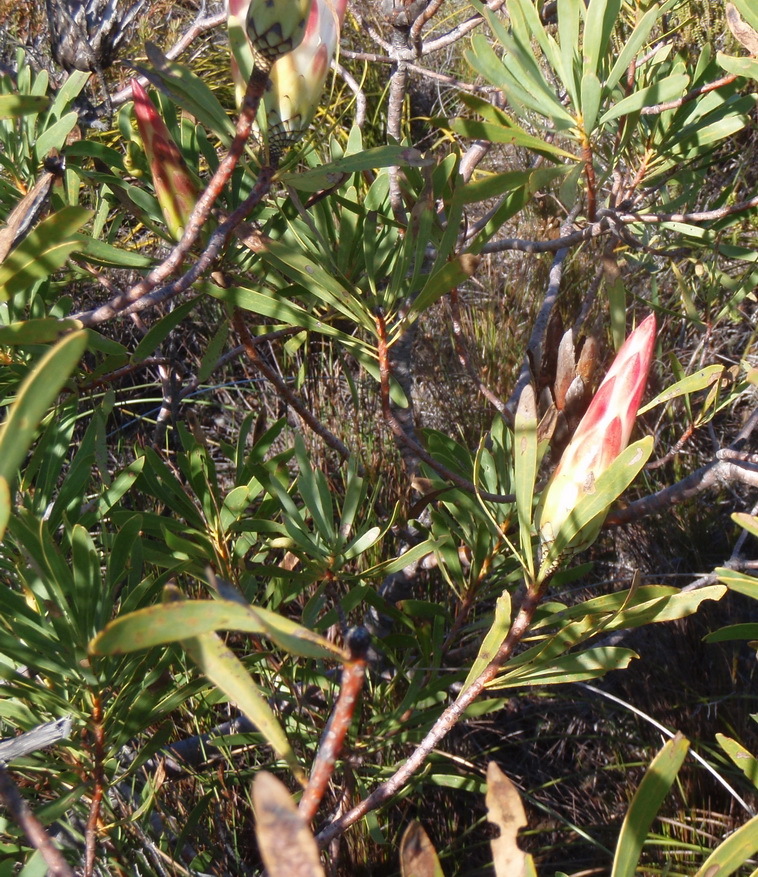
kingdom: Plantae
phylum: Tracheophyta
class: Magnoliopsida
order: Proteales
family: Proteaceae
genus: Protea
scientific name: Protea repens
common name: Sugarbush
